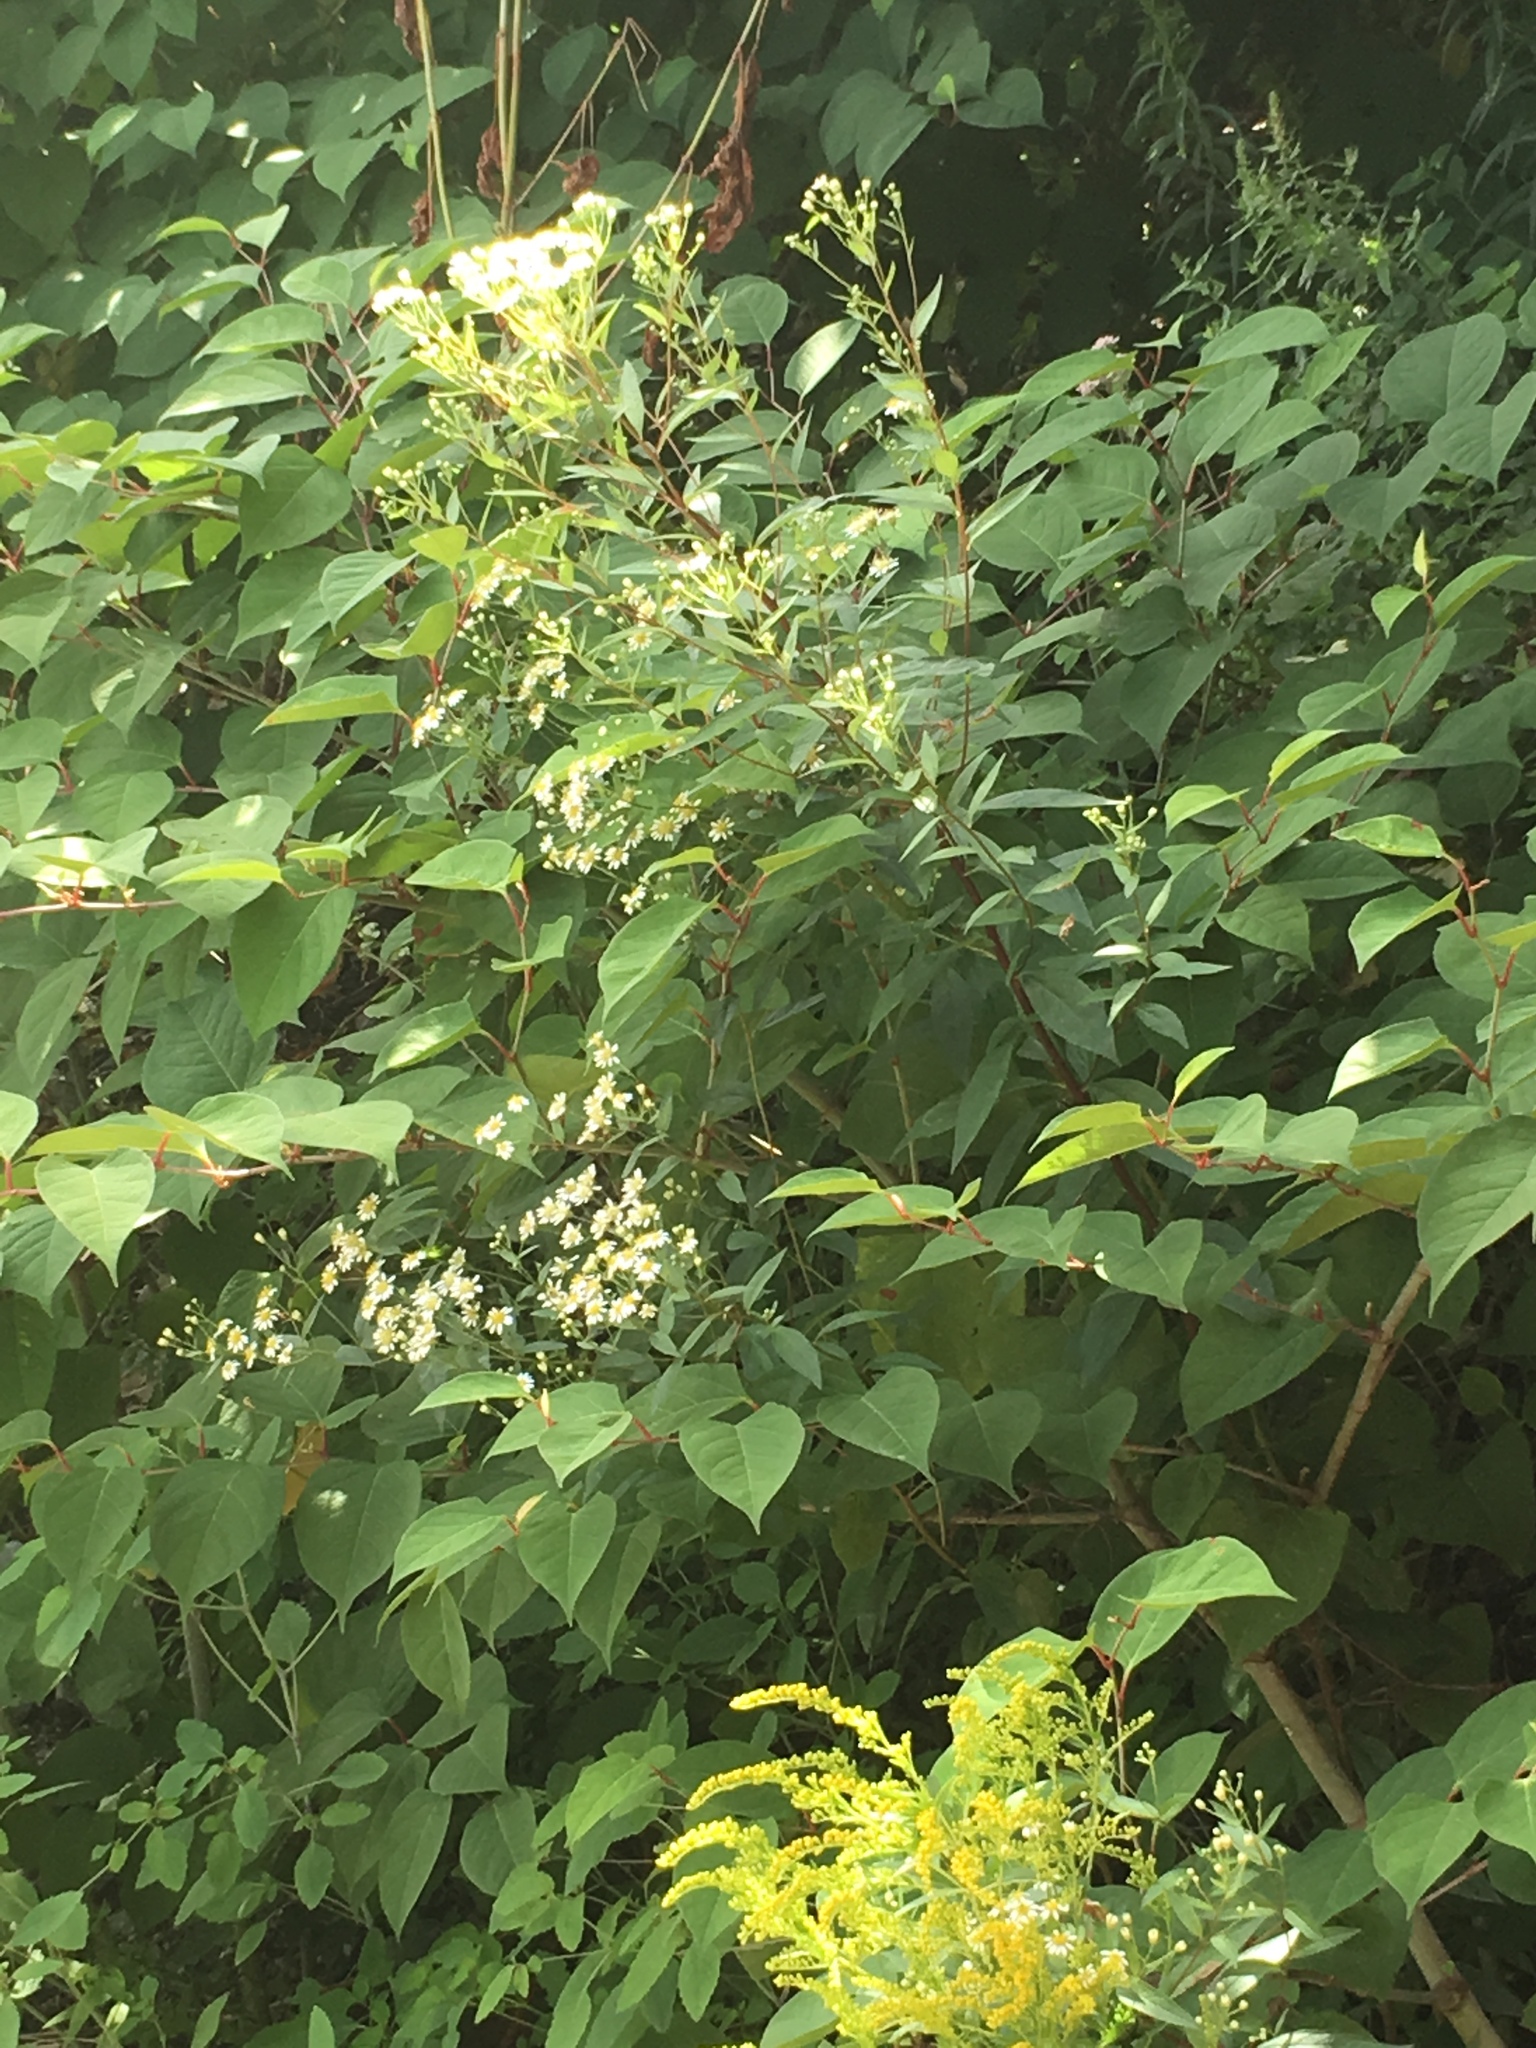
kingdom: Plantae
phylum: Tracheophyta
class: Magnoliopsida
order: Asterales
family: Asteraceae
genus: Doellingeria
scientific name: Doellingeria umbellata
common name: Flat-top white aster
